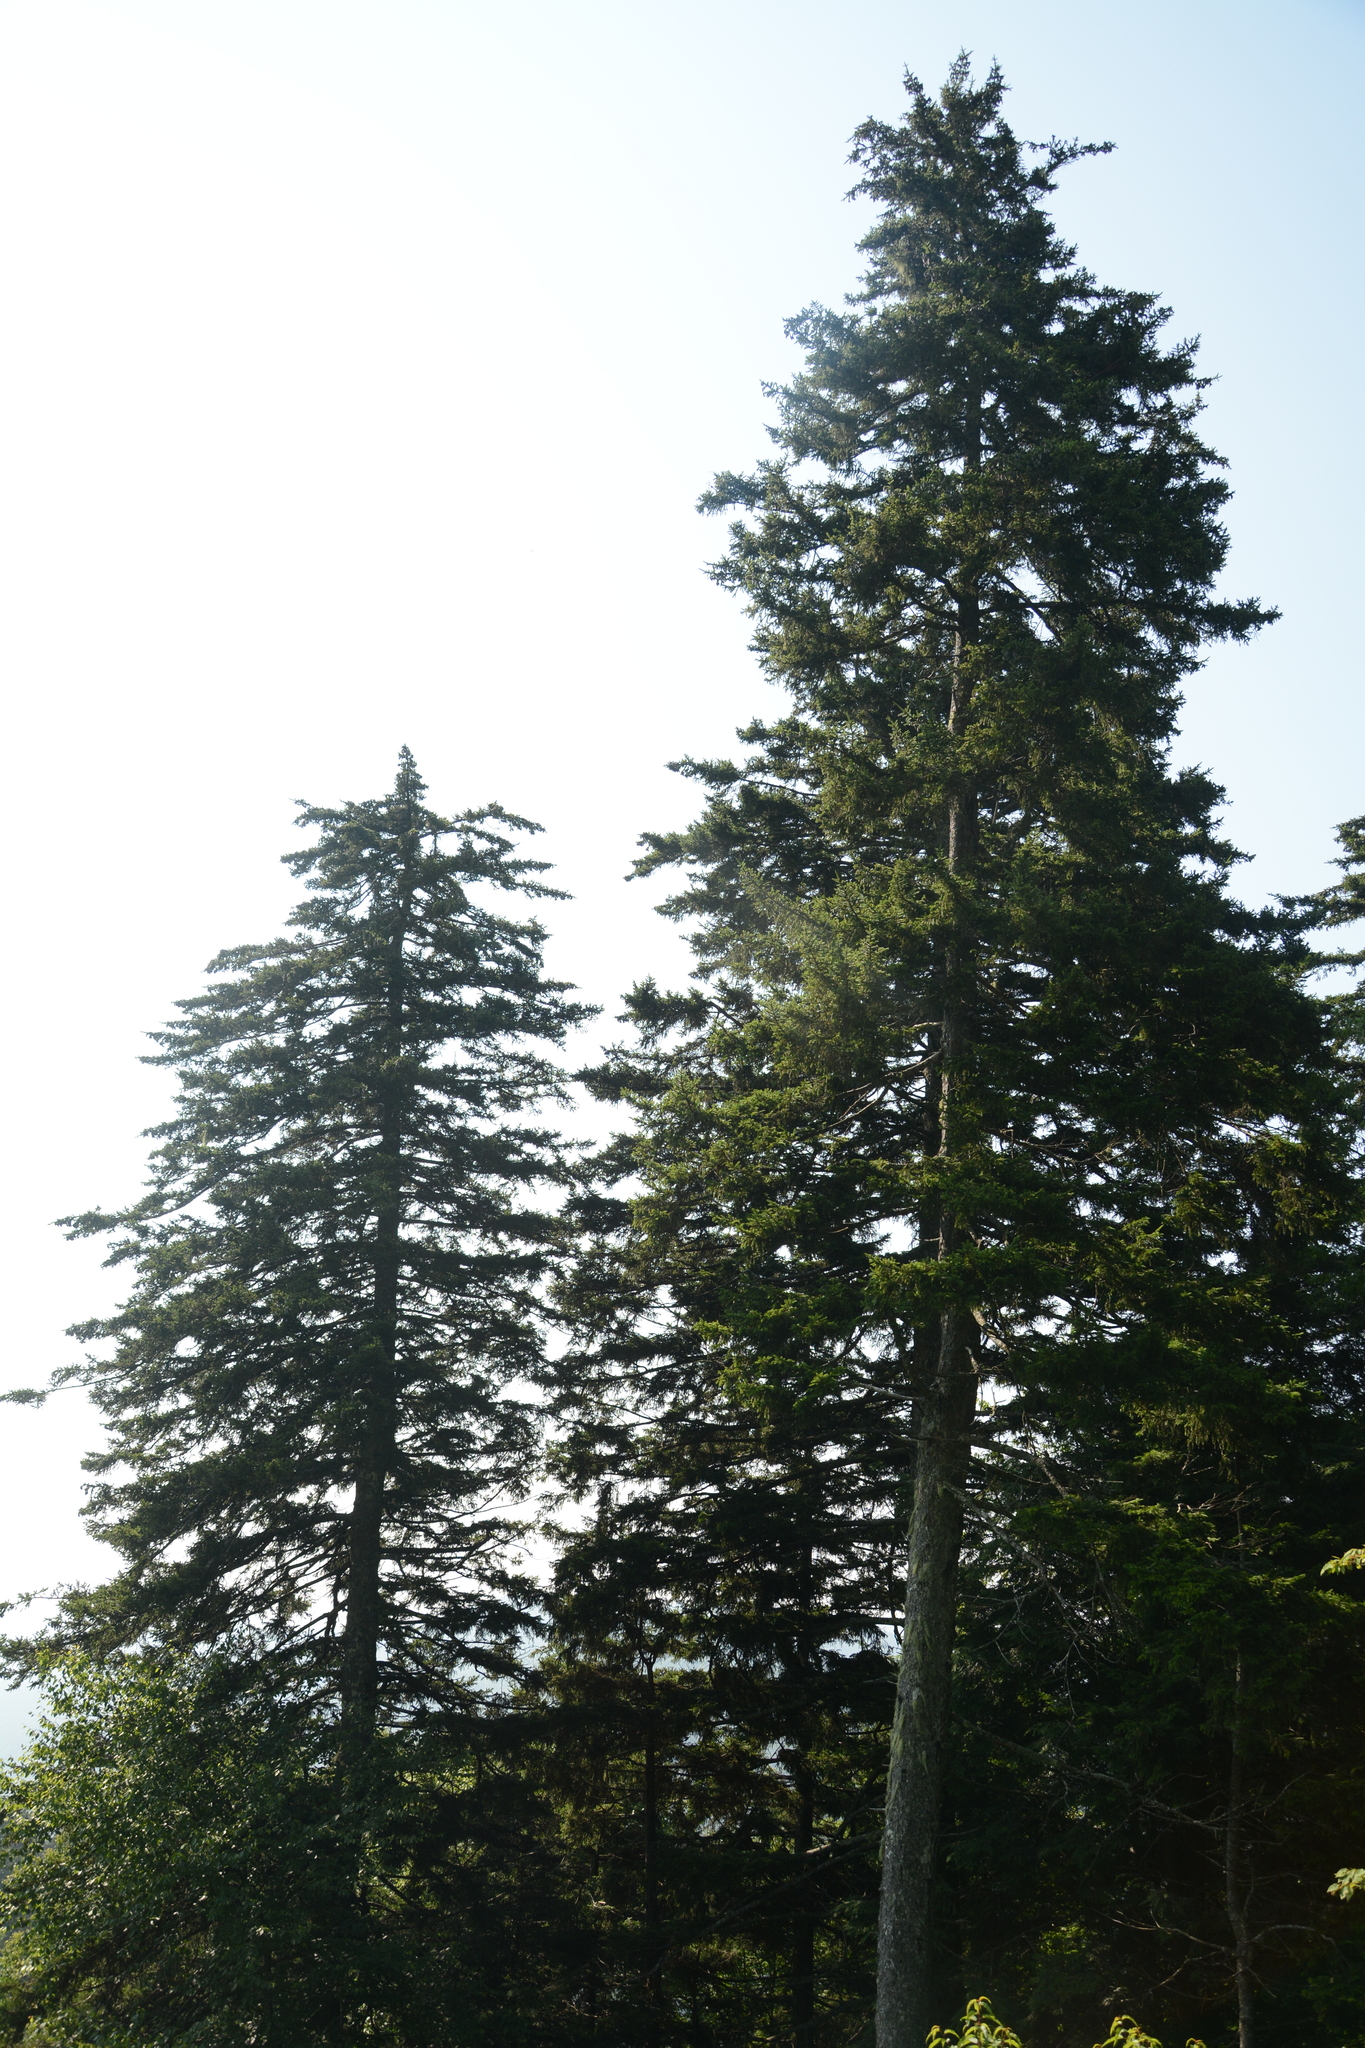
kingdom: Plantae
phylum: Tracheophyta
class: Pinopsida
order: Pinales
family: Pinaceae
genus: Picea
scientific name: Picea rubens
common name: Red spruce
